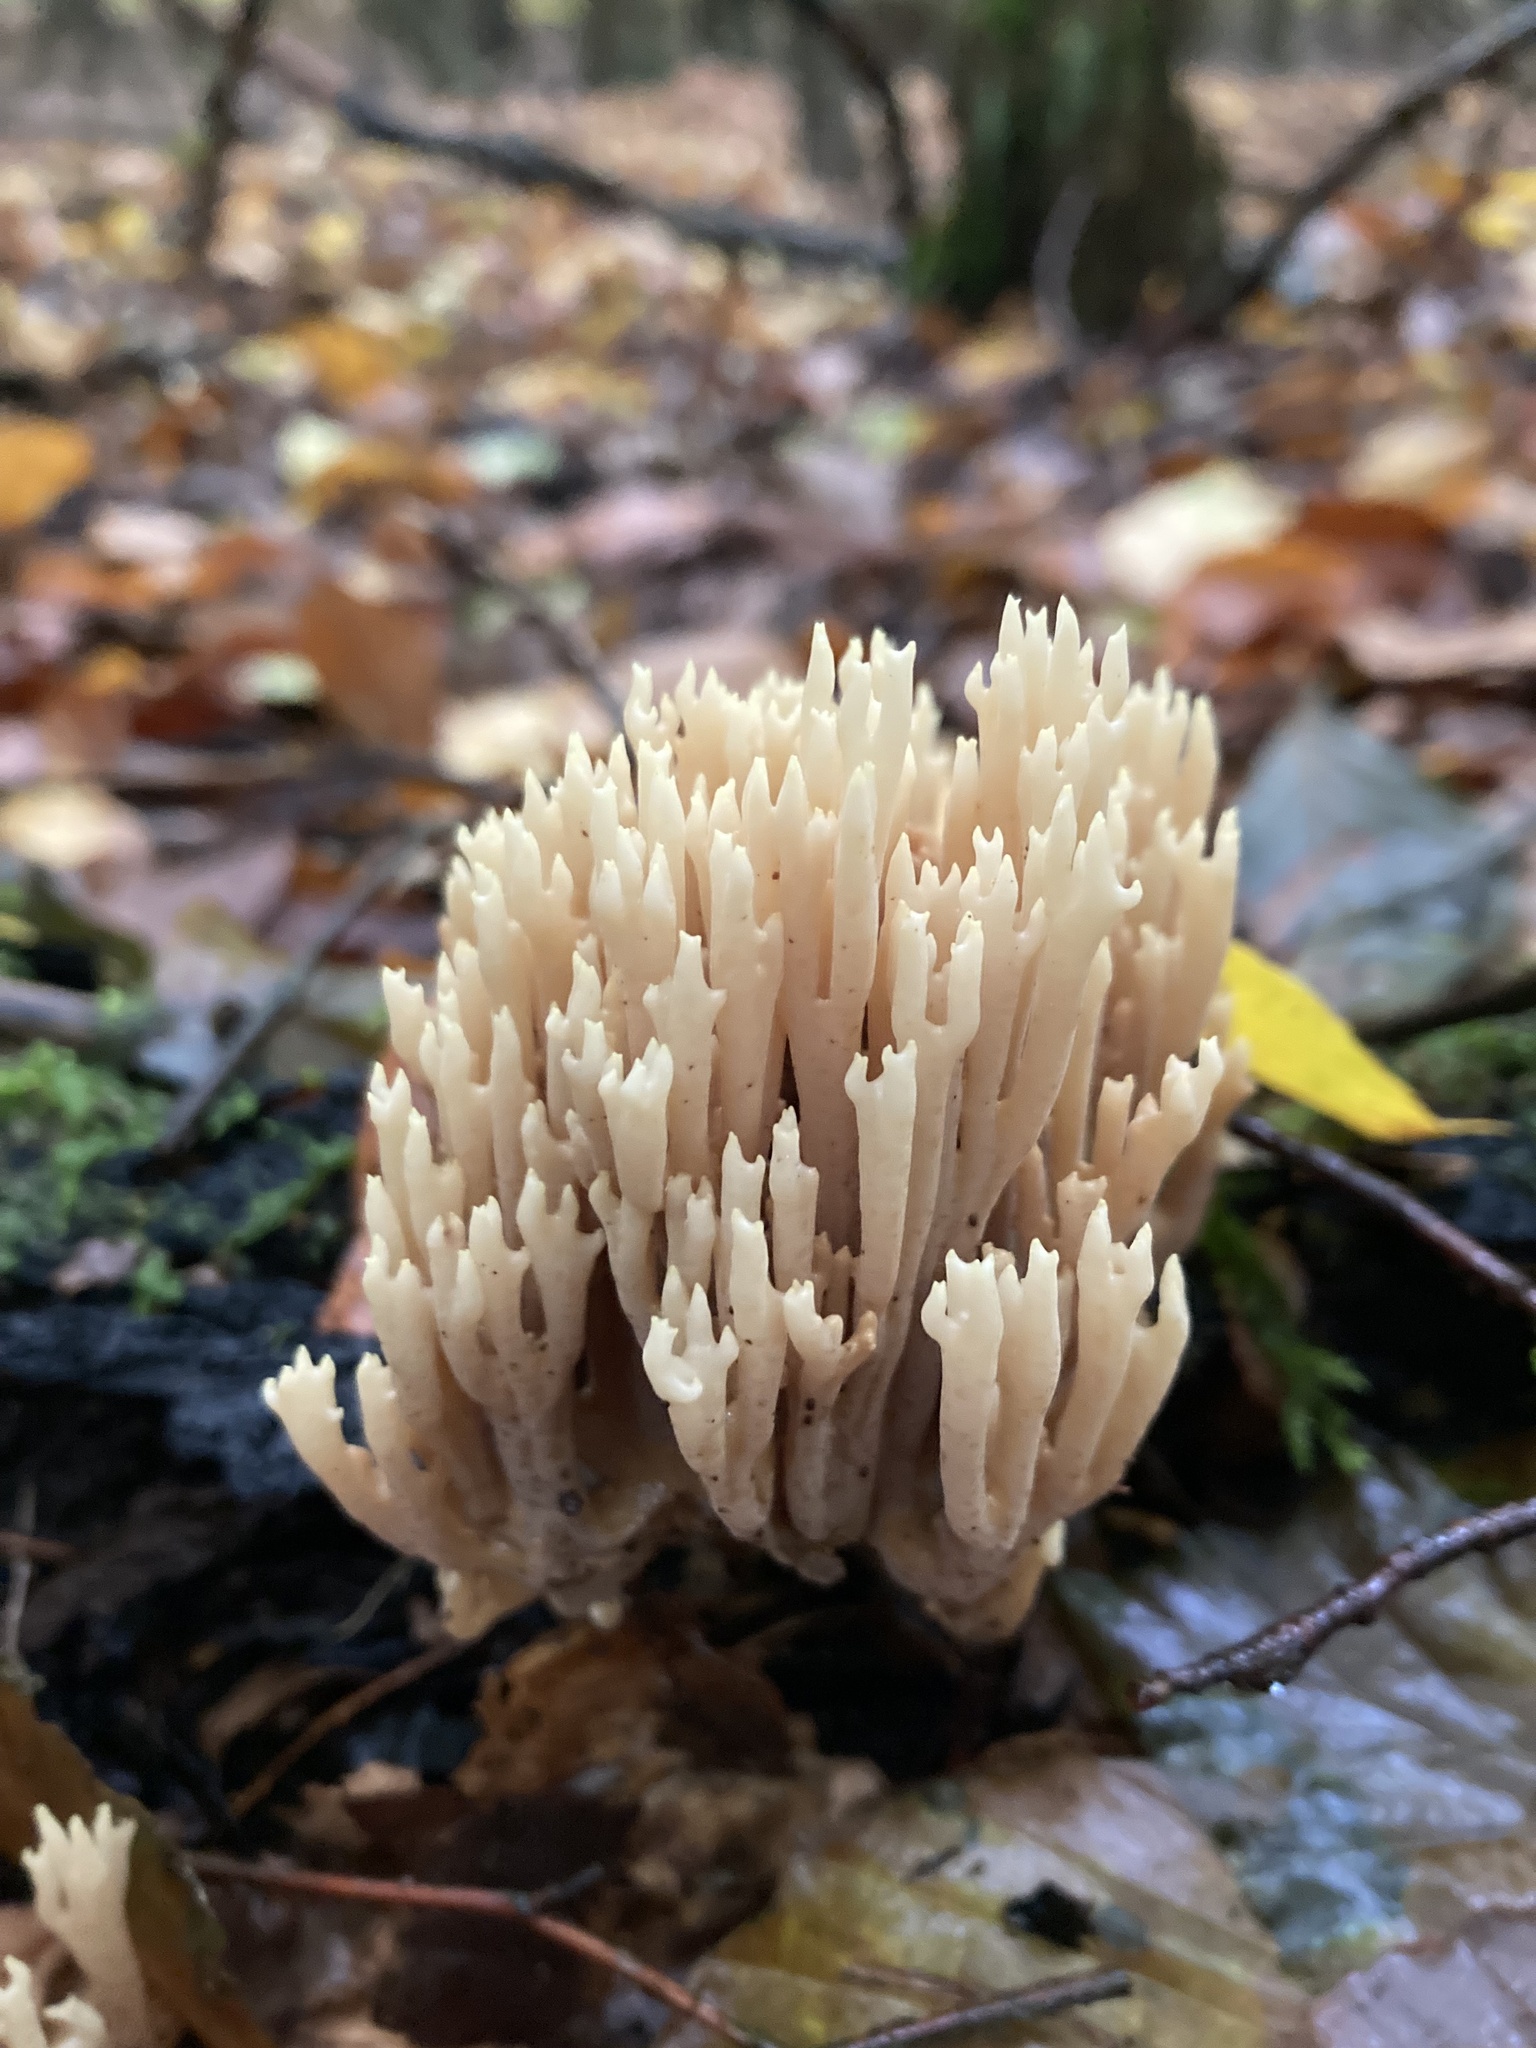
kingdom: Fungi
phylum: Basidiomycota
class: Agaricomycetes
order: Gomphales
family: Gomphaceae
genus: Ramaria
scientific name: Ramaria stricta
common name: Upright coral
